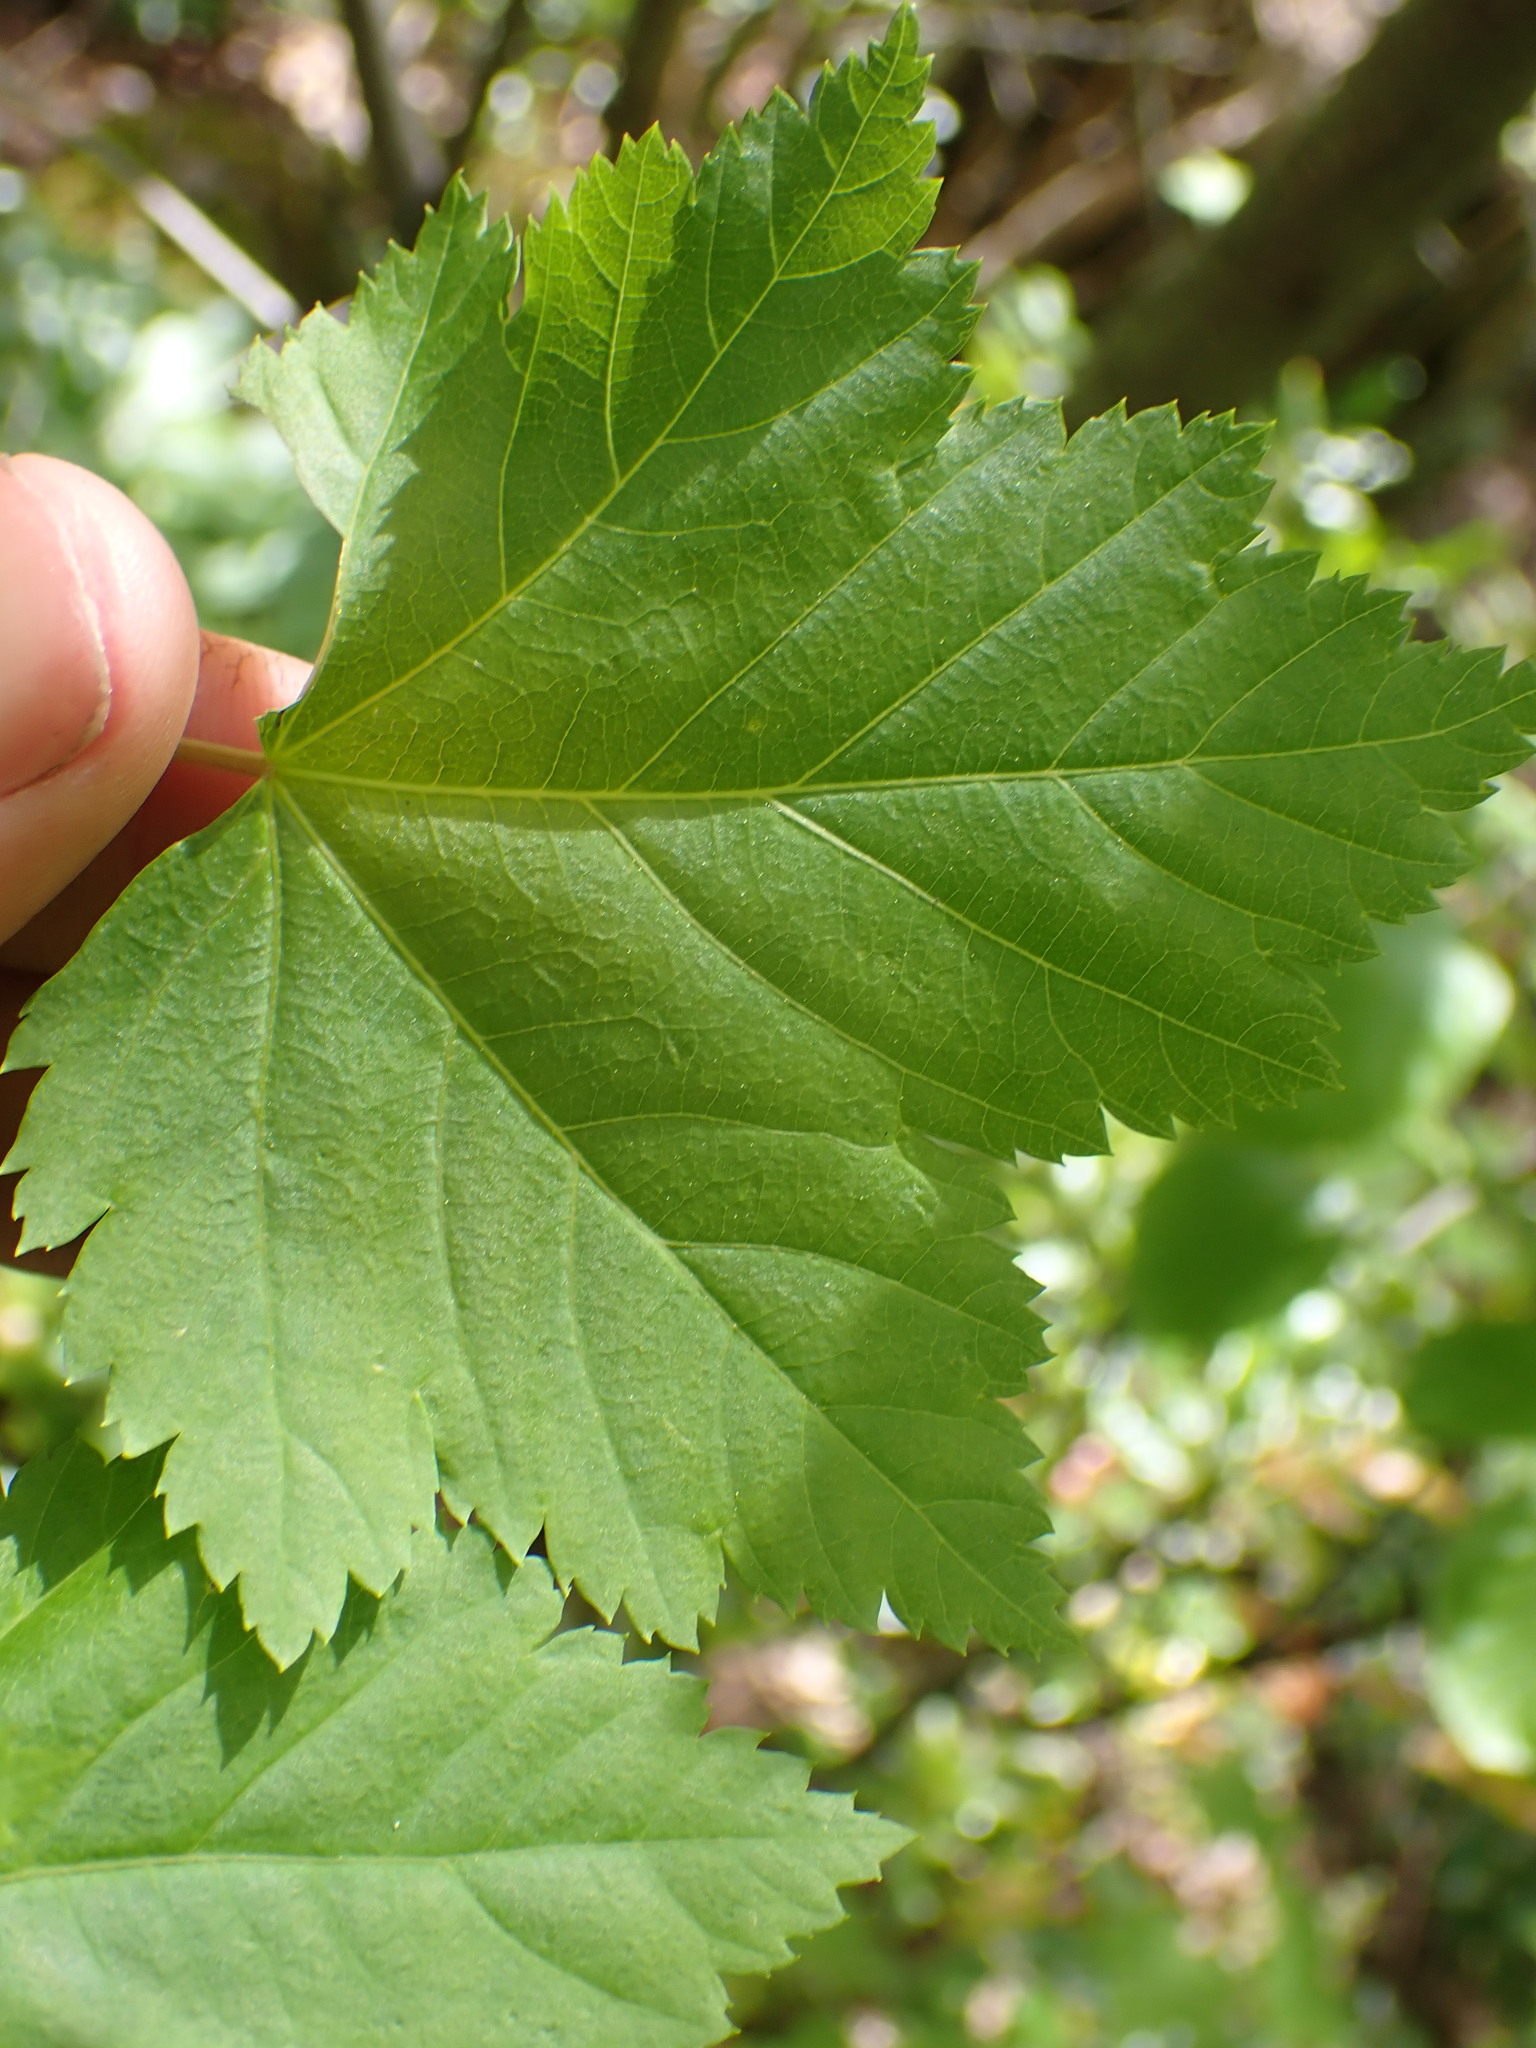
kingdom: Plantae
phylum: Tracheophyta
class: Magnoliopsida
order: Sapindales
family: Sapindaceae
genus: Acer
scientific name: Acer glabrum
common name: Rocky mountain maple
